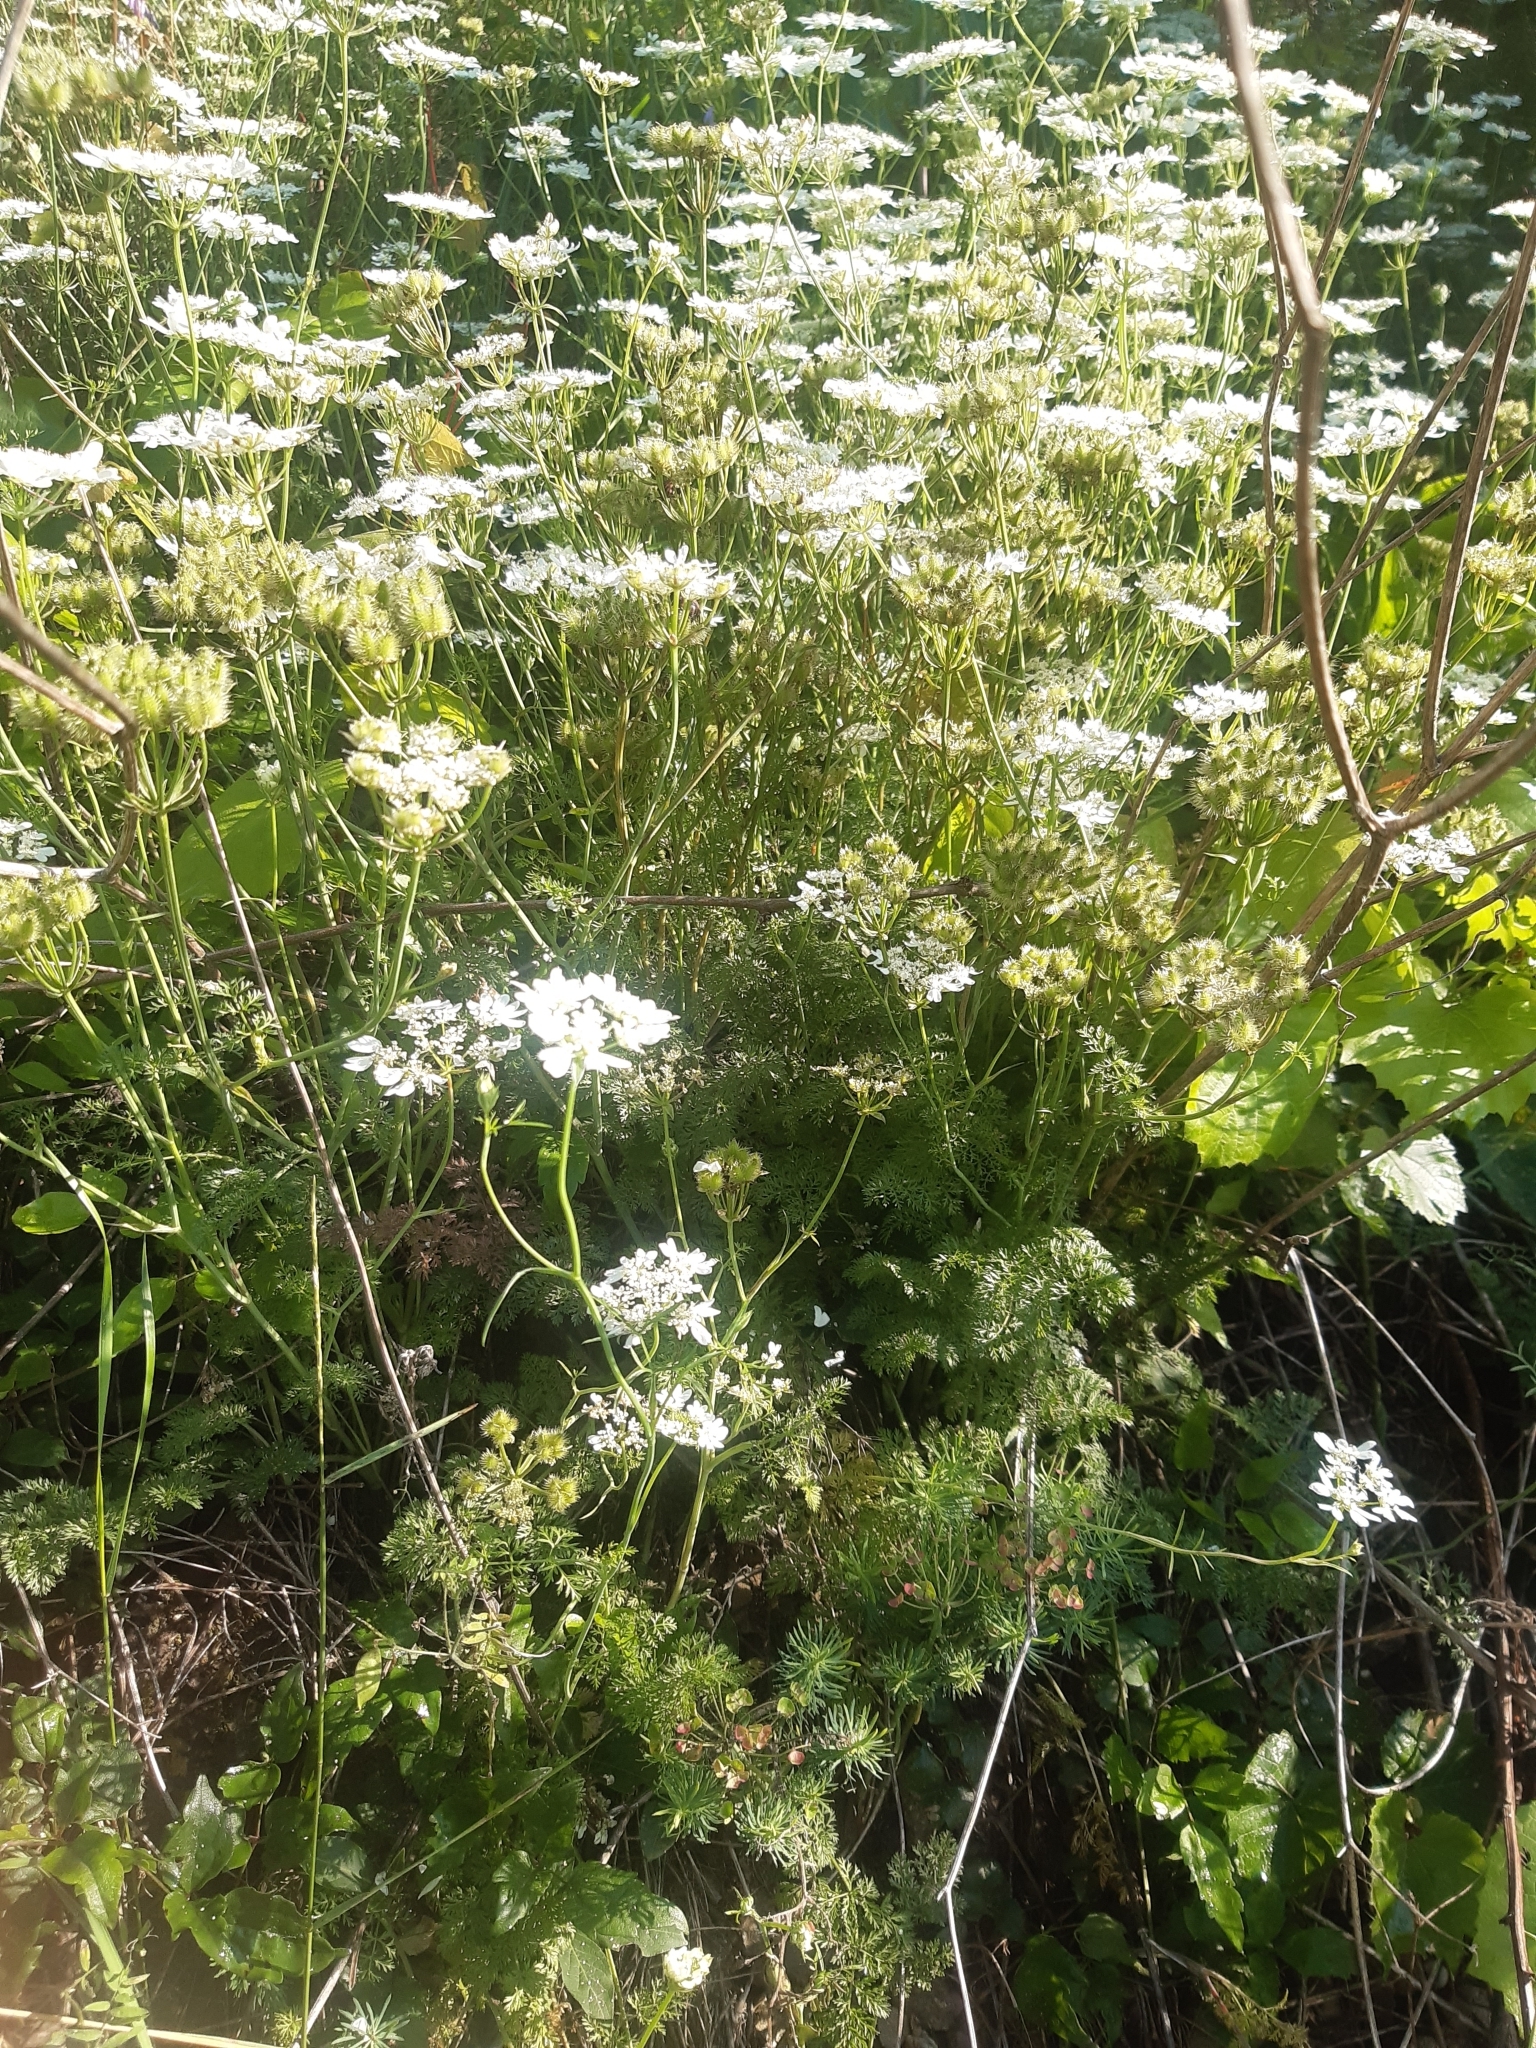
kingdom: Plantae
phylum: Tracheophyta
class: Magnoliopsida
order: Apiales
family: Apiaceae
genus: Orlaya
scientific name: Orlaya grandiflora
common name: White lace flower
